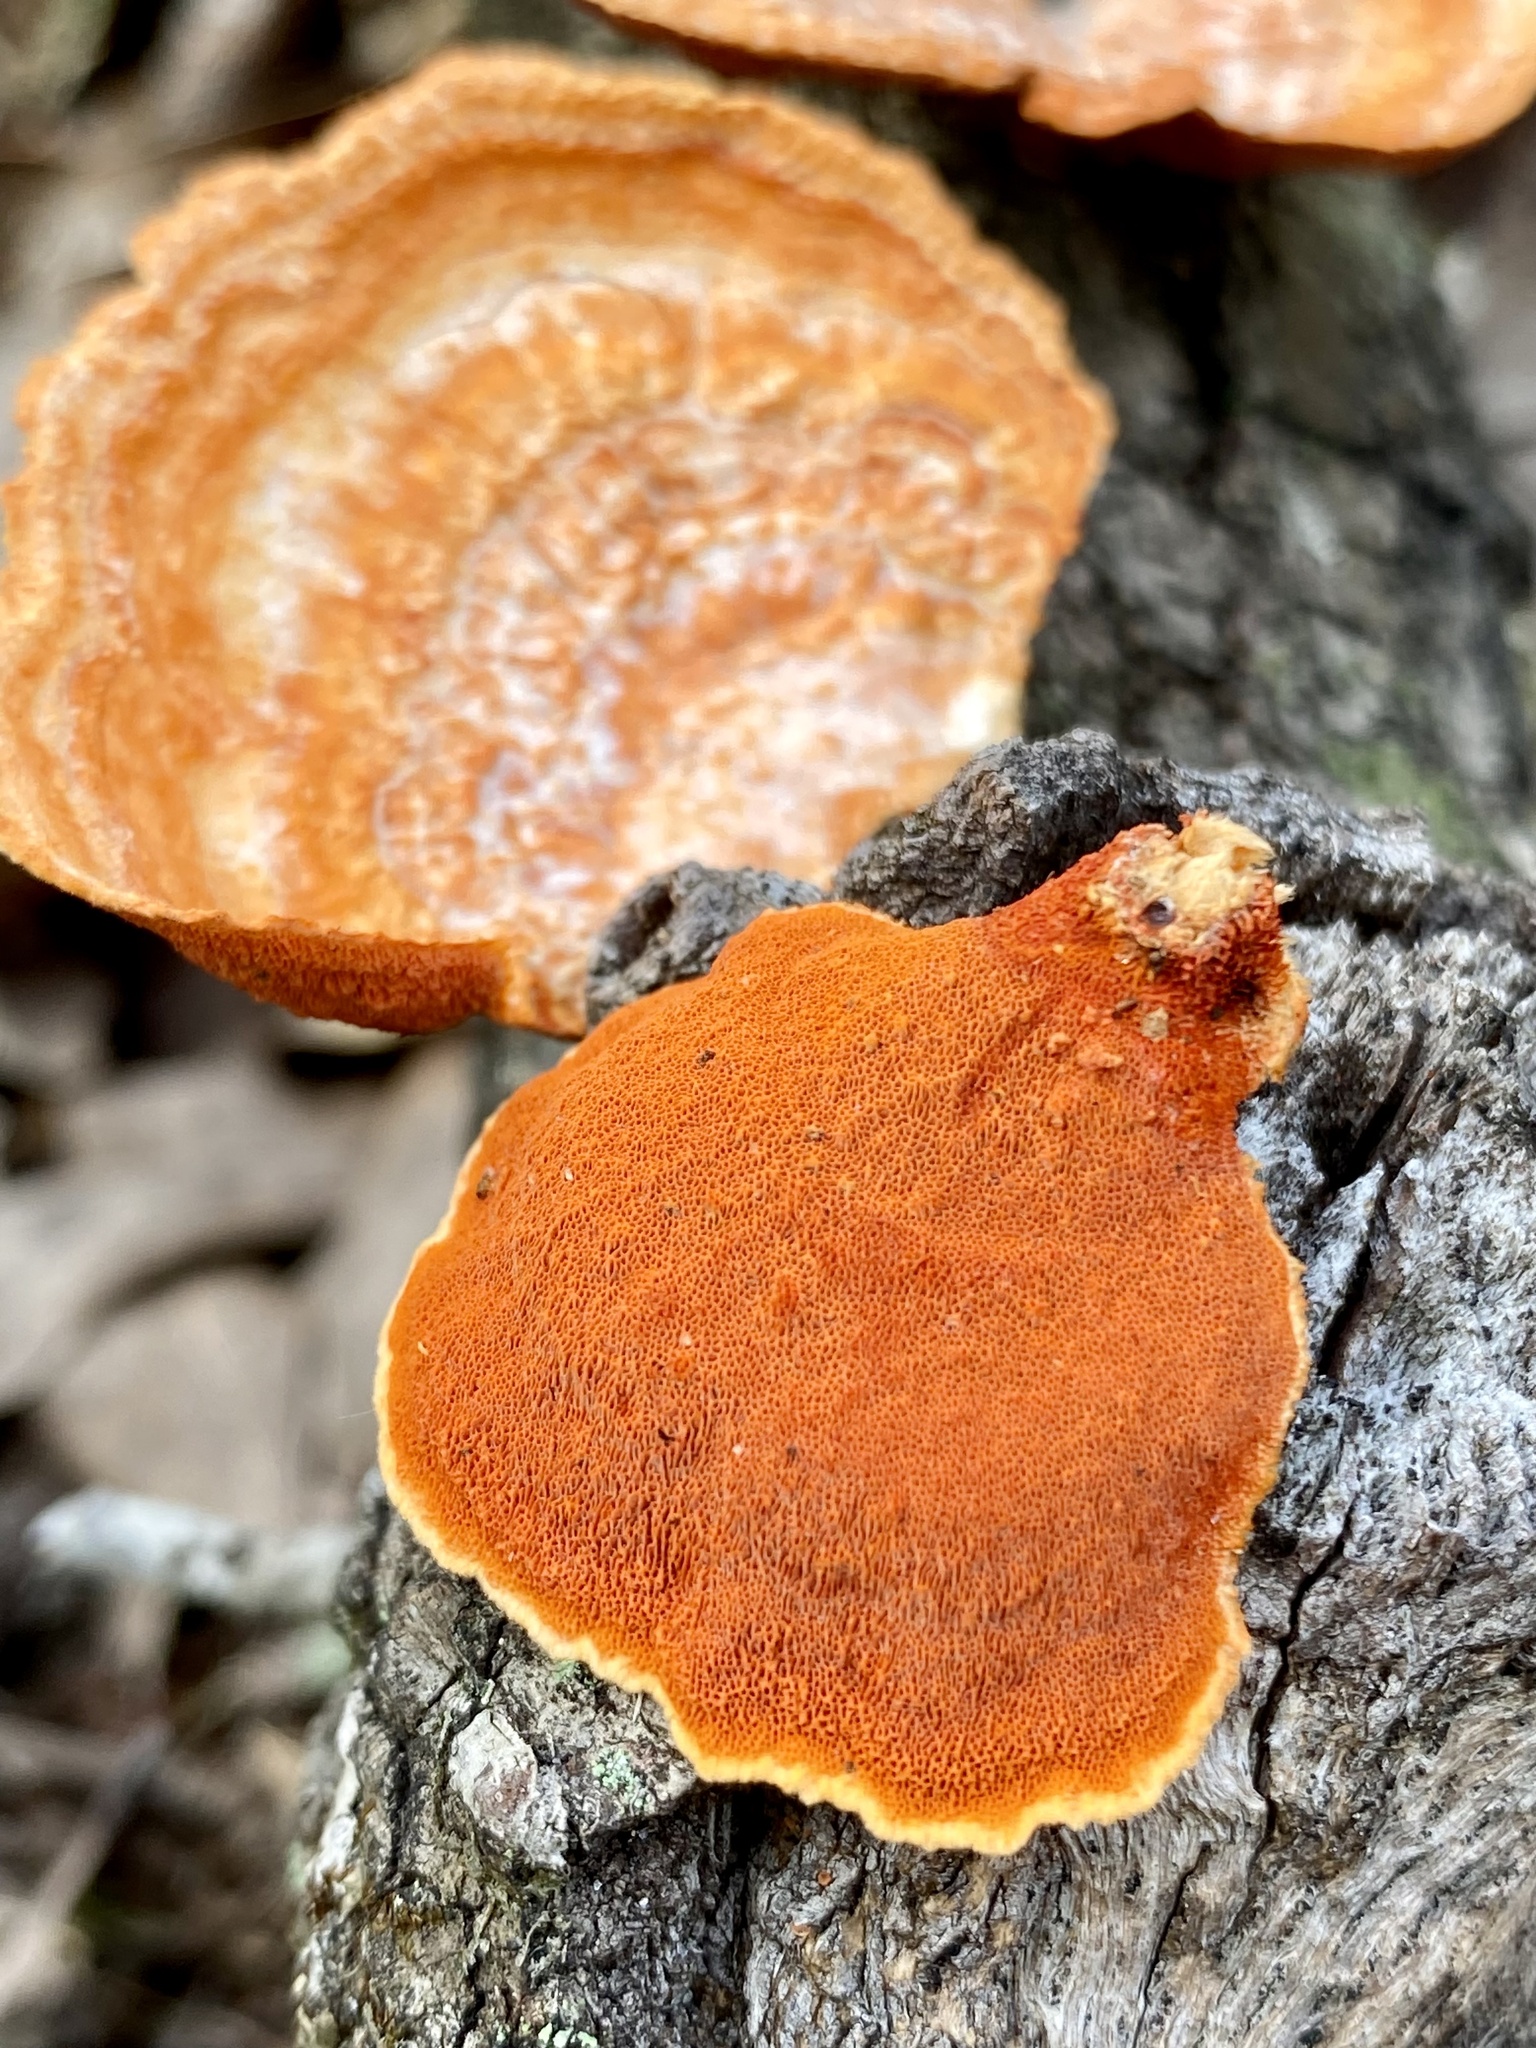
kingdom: Fungi
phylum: Basidiomycota
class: Agaricomycetes
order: Polyporales
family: Polyporaceae
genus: Trametes
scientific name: Trametes coccinea
